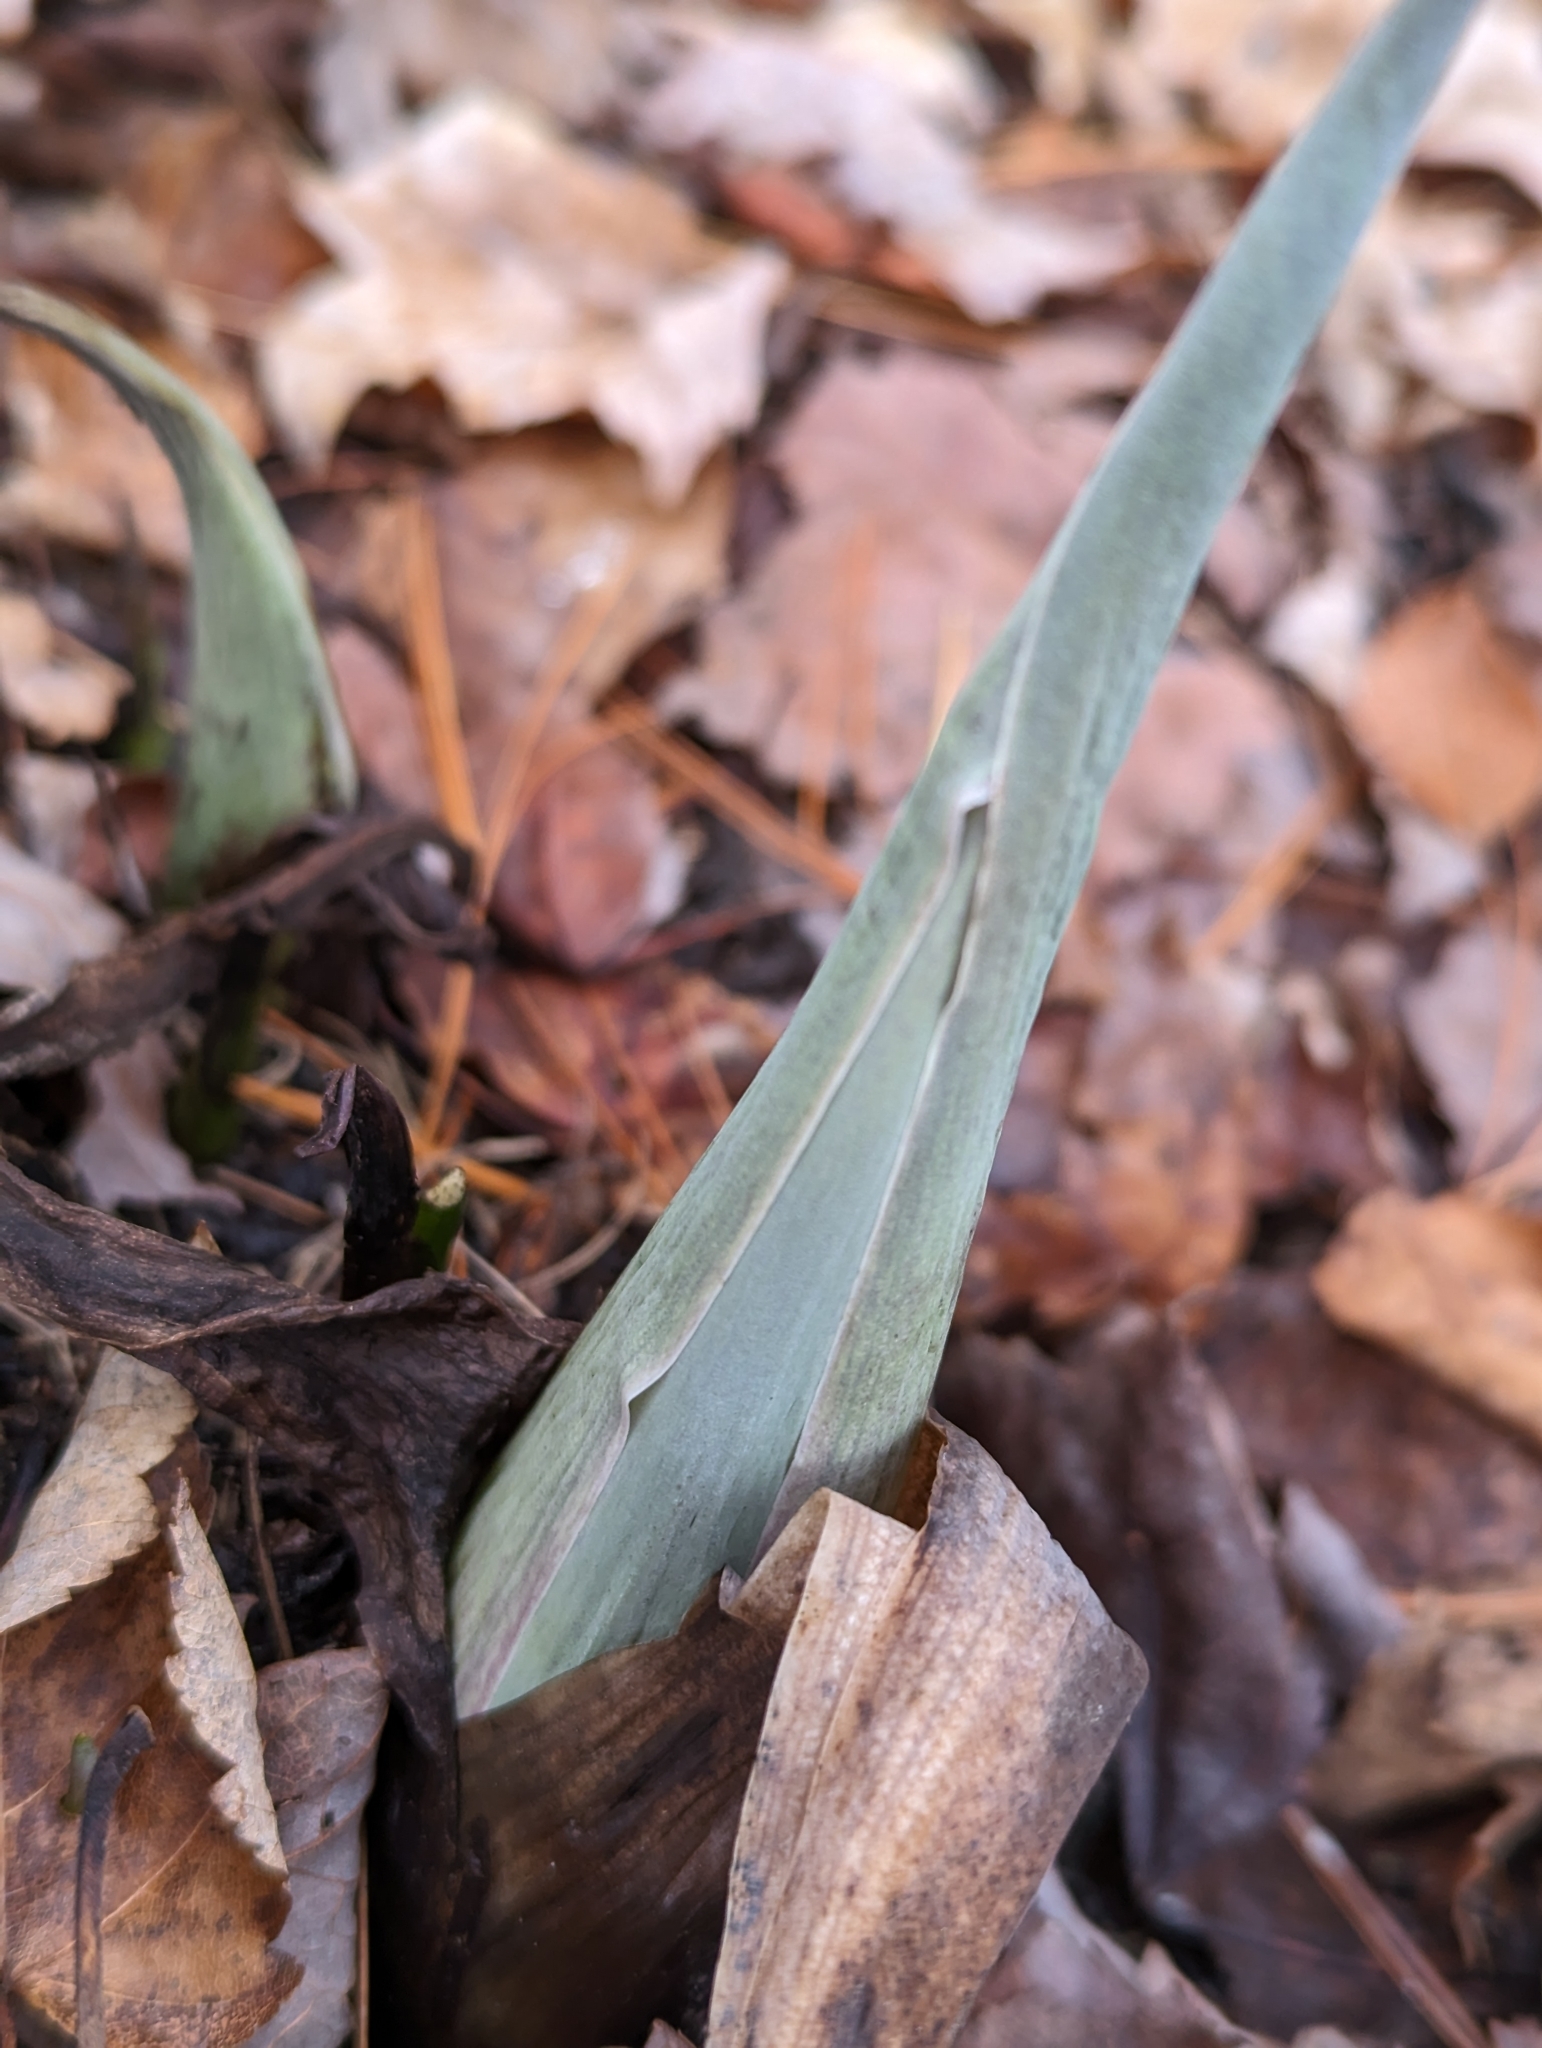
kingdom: Plantae
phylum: Tracheophyta
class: Liliopsida
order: Alismatales
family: Araceae
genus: Symplocarpus
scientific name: Symplocarpus foetidus
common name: Eastern skunk cabbage
